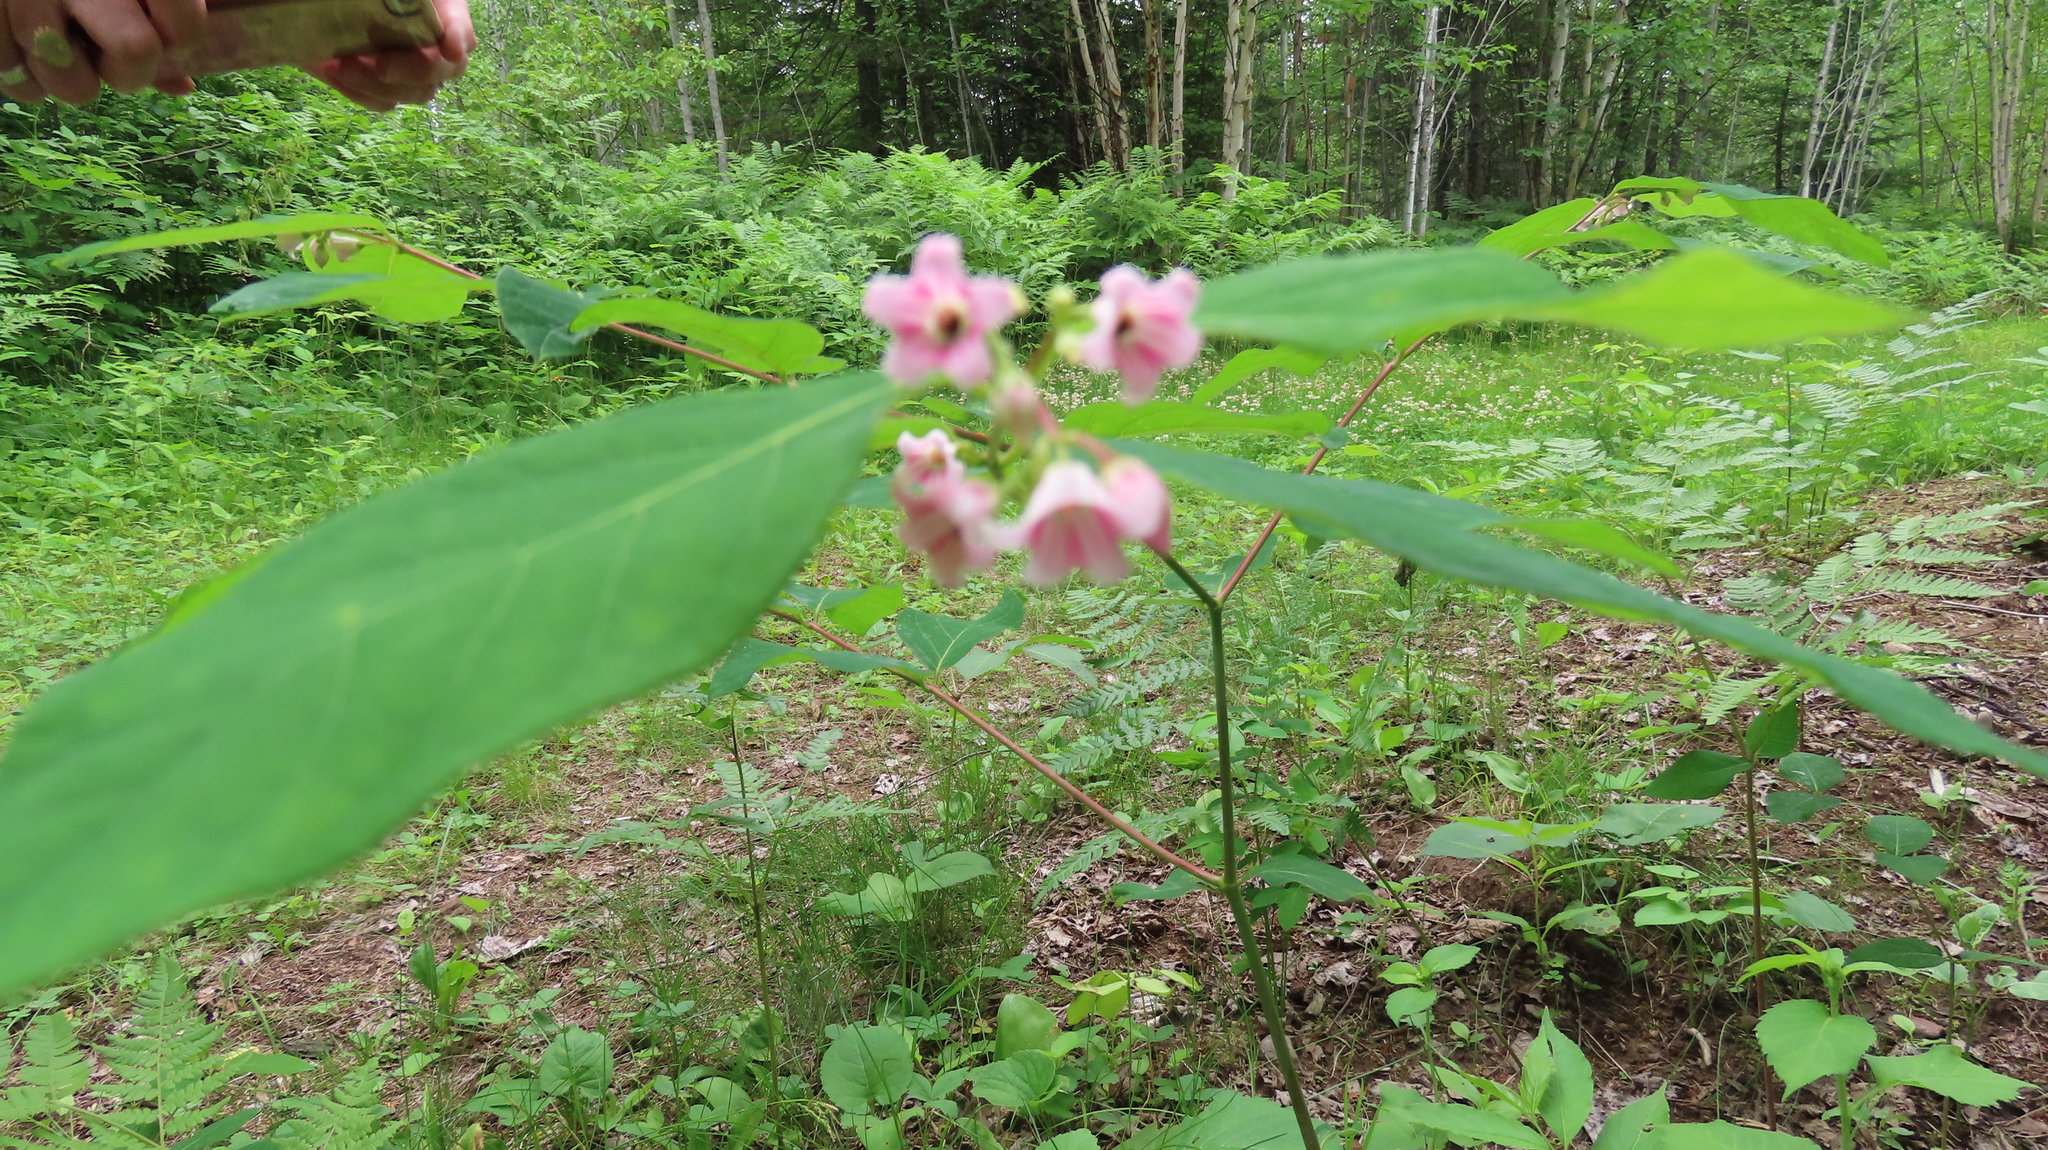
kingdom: Plantae
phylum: Tracheophyta
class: Magnoliopsida
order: Gentianales
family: Apocynaceae
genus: Apocynum
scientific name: Apocynum androsaemifolium
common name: Spreading dogbane
